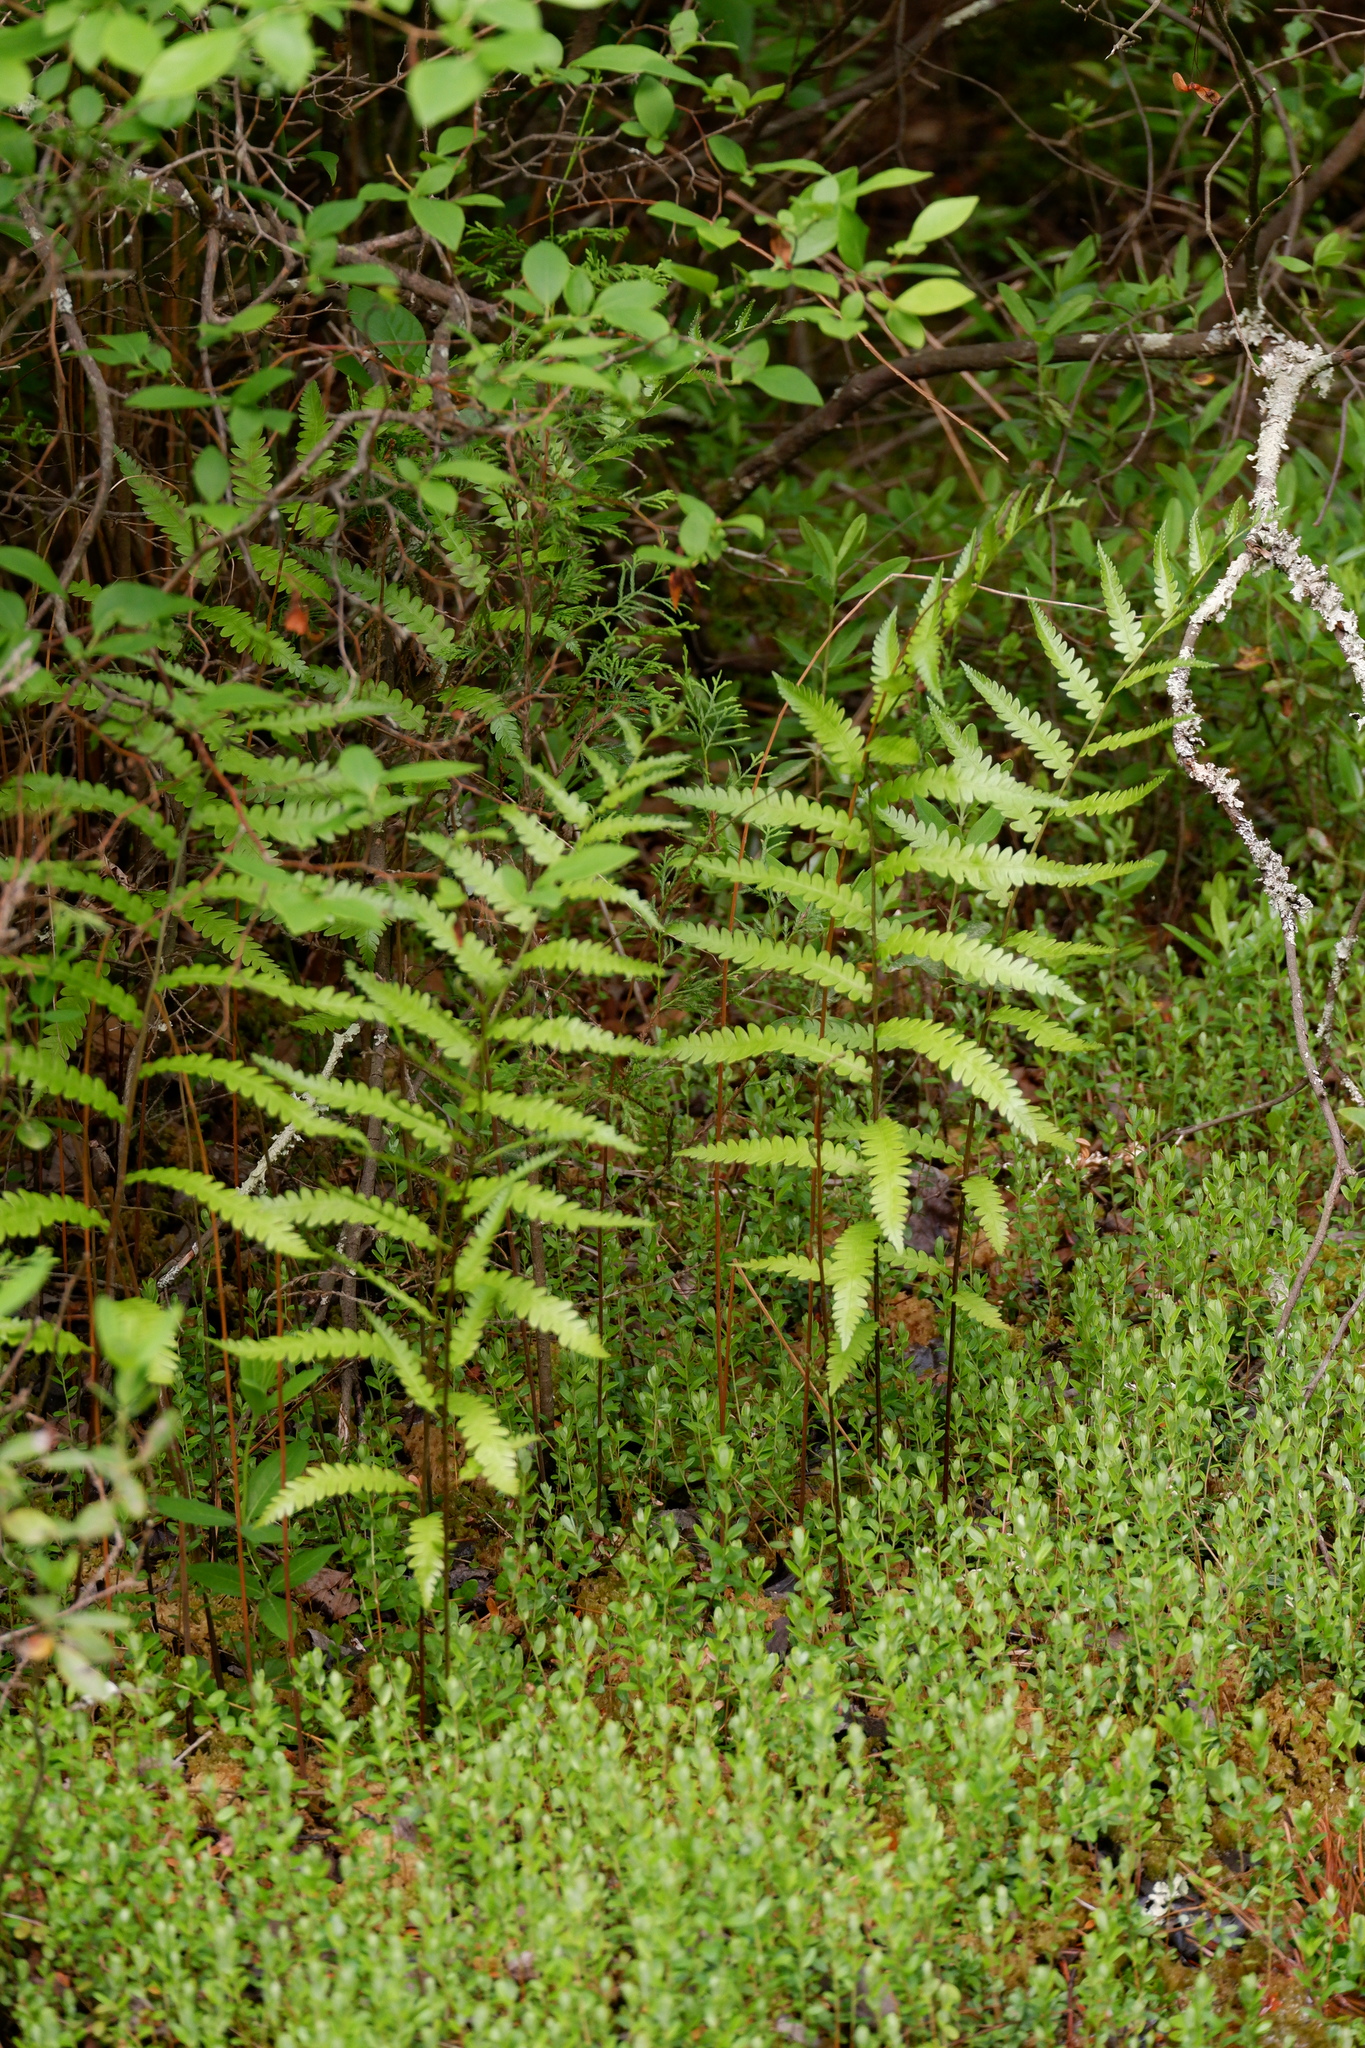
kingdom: Plantae
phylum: Tracheophyta
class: Polypodiopsida
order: Polypodiales
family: Blechnaceae
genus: Anchistea
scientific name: Anchistea virginica
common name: Virginia chain fern
